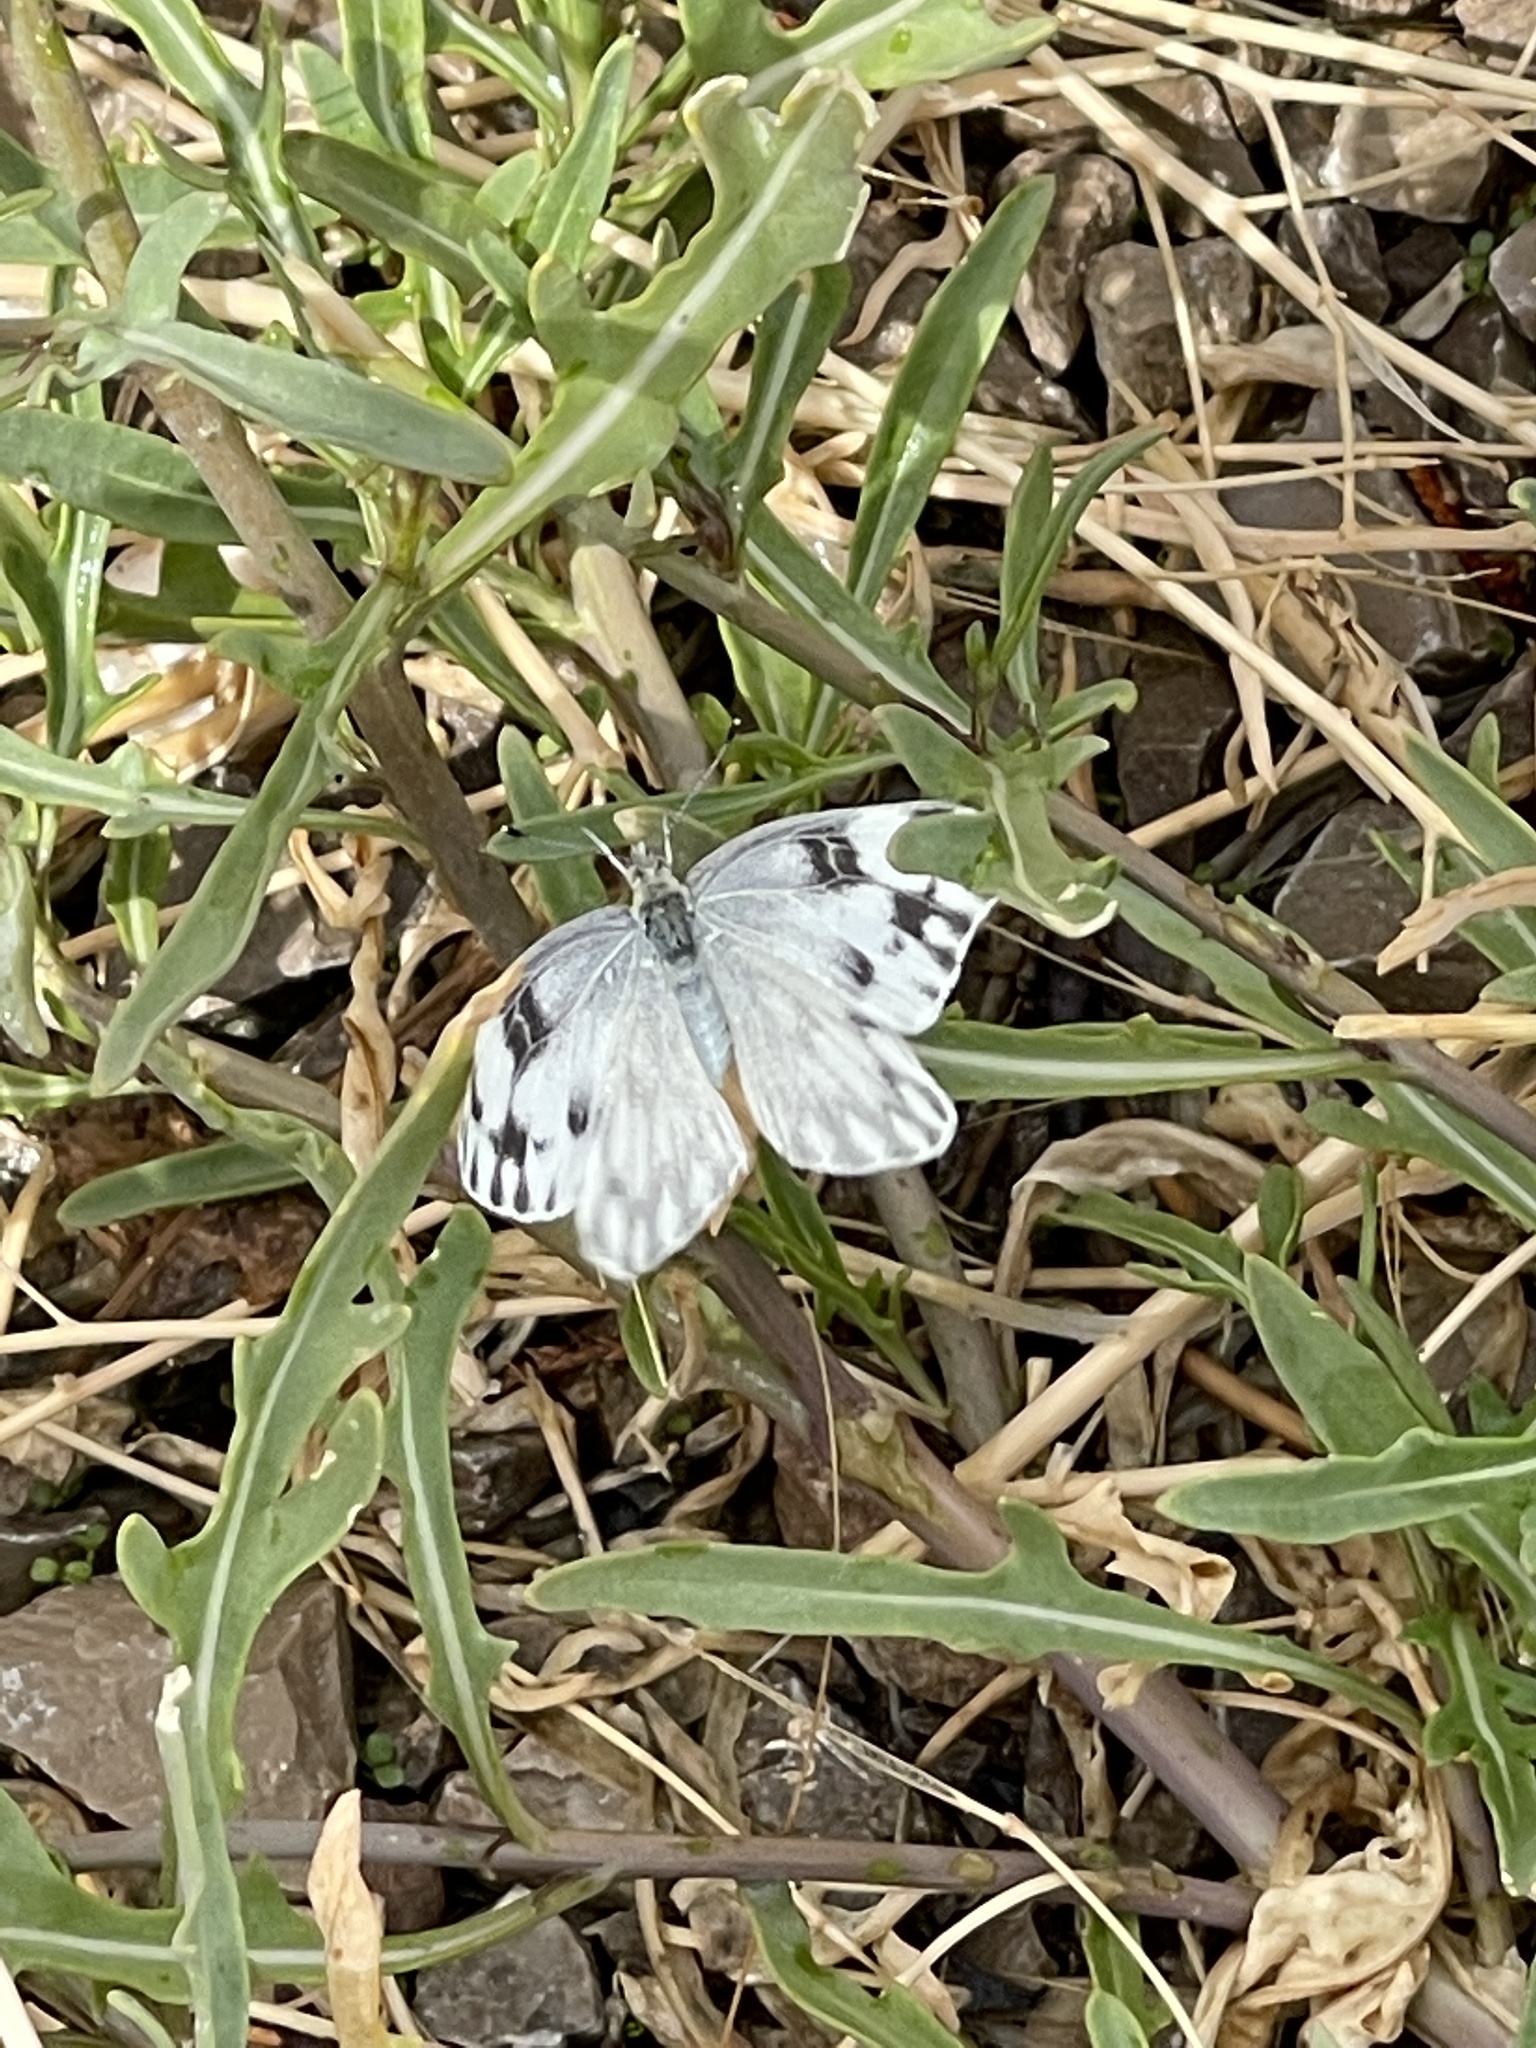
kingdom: Animalia
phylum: Arthropoda
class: Insecta
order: Lepidoptera
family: Pieridae
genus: Pontia
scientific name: Pontia protodice
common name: Checkered white
